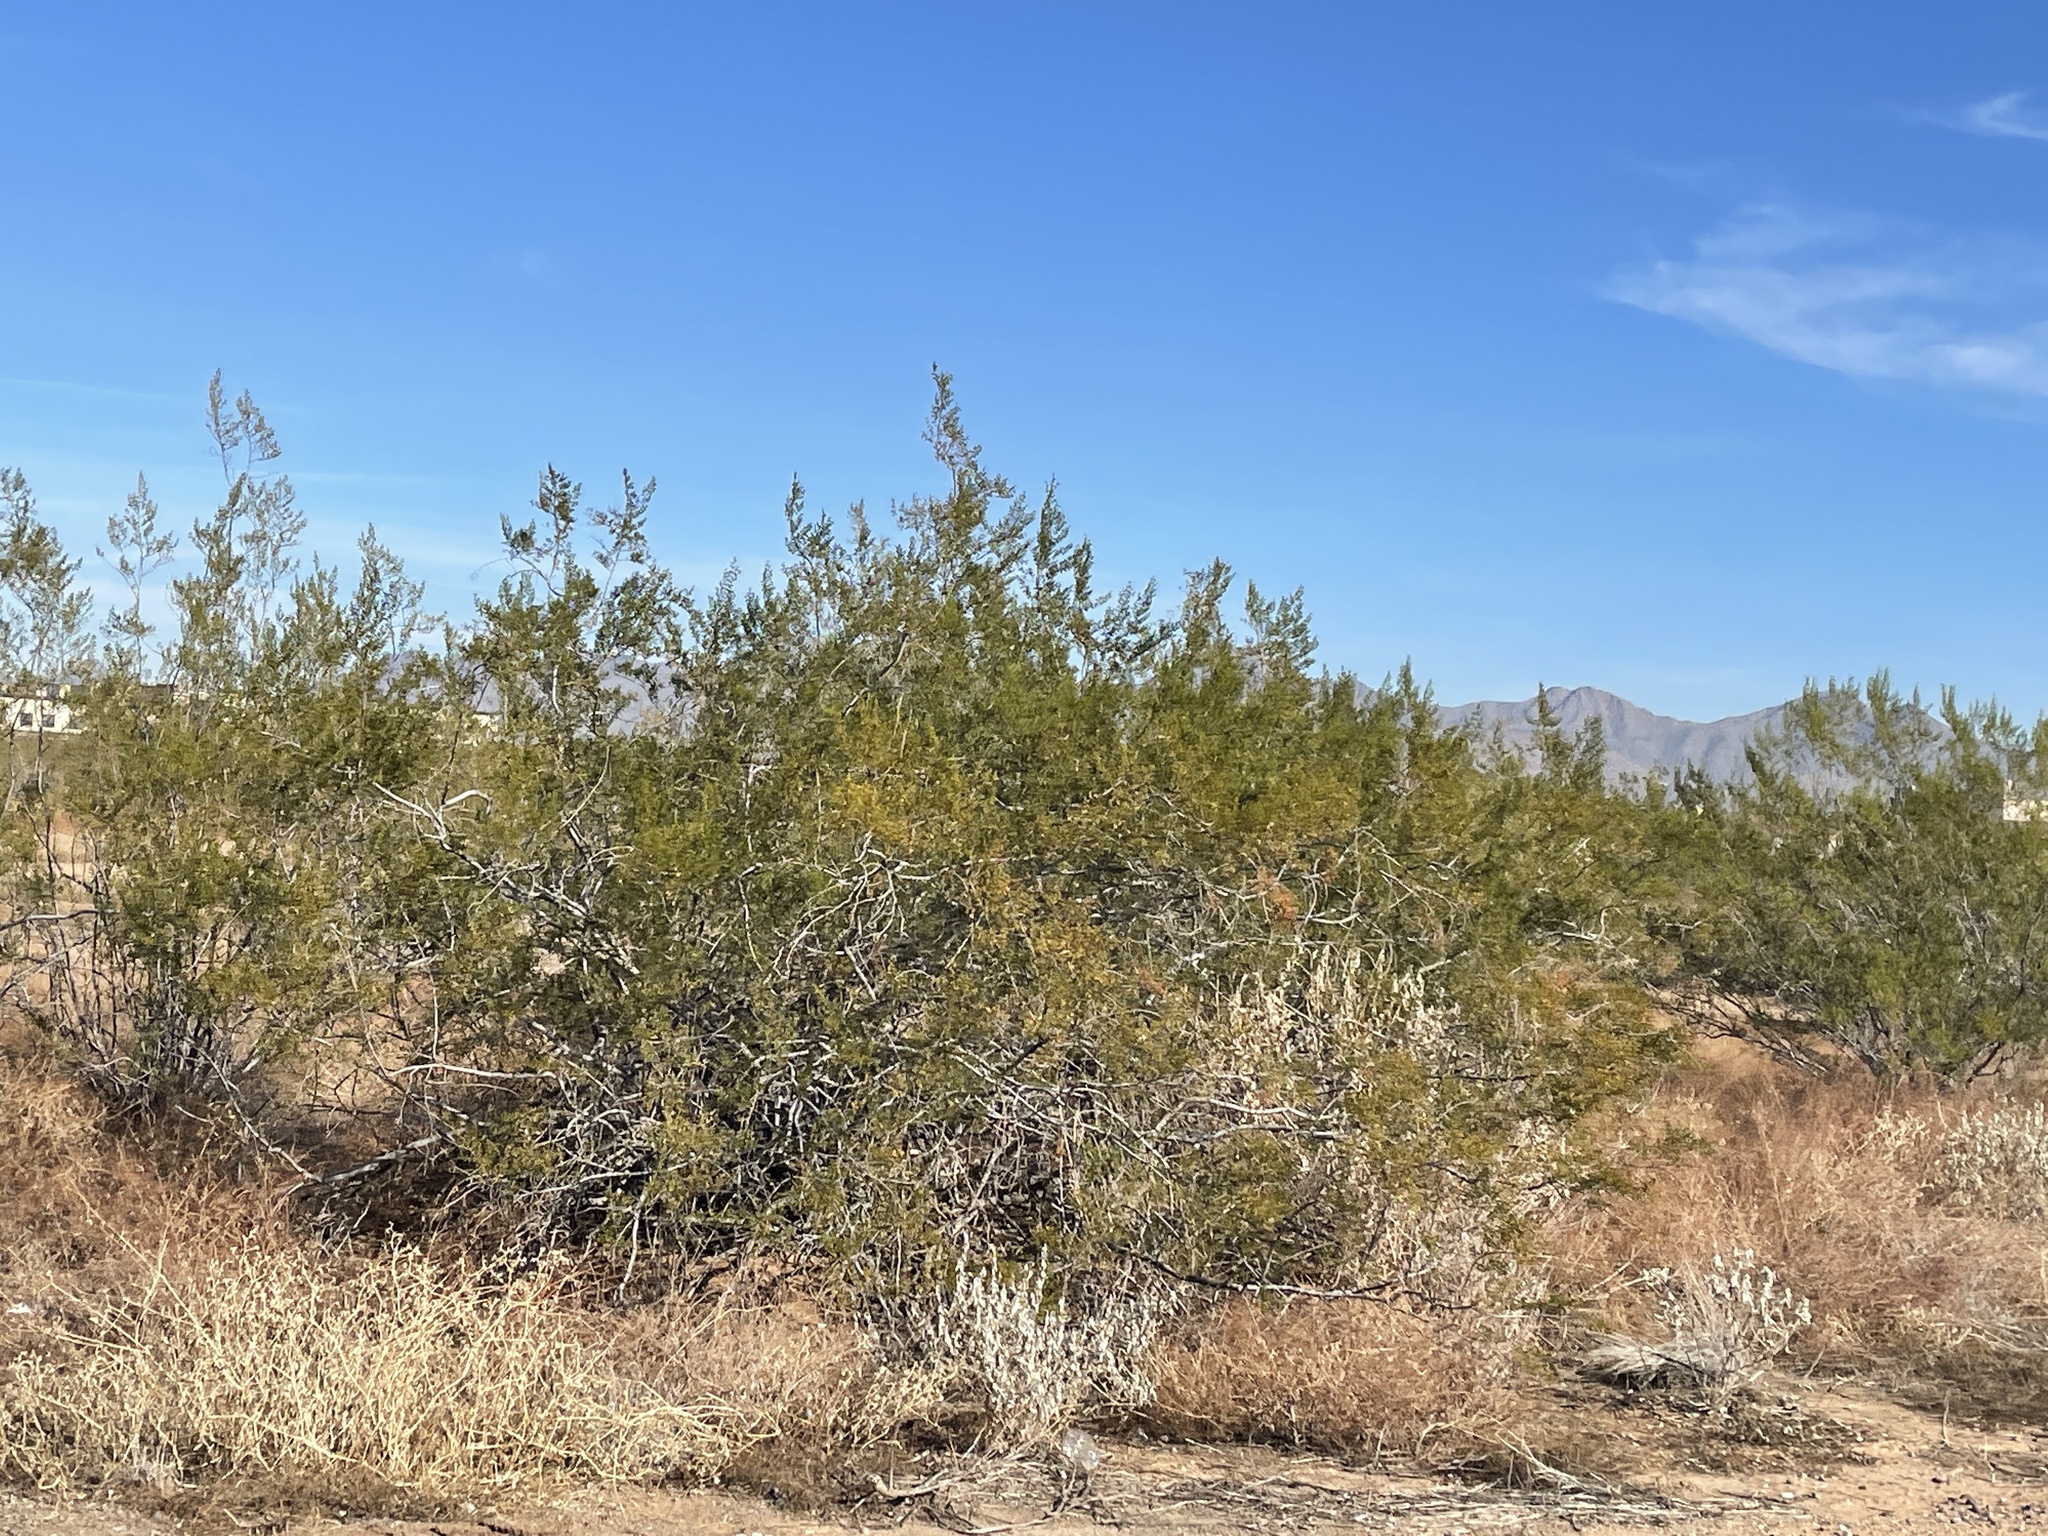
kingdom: Plantae
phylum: Tracheophyta
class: Magnoliopsida
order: Zygophyllales
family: Zygophyllaceae
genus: Larrea
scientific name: Larrea tridentata
